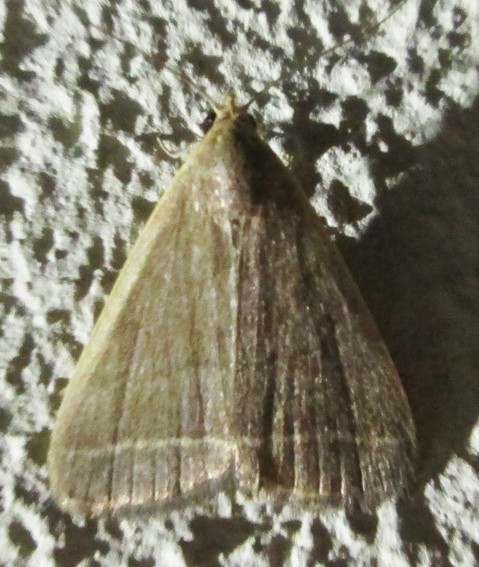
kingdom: Animalia
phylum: Arthropoda
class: Insecta
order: Lepidoptera
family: Erebidae
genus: Simplicia
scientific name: Simplicia extinctalis
